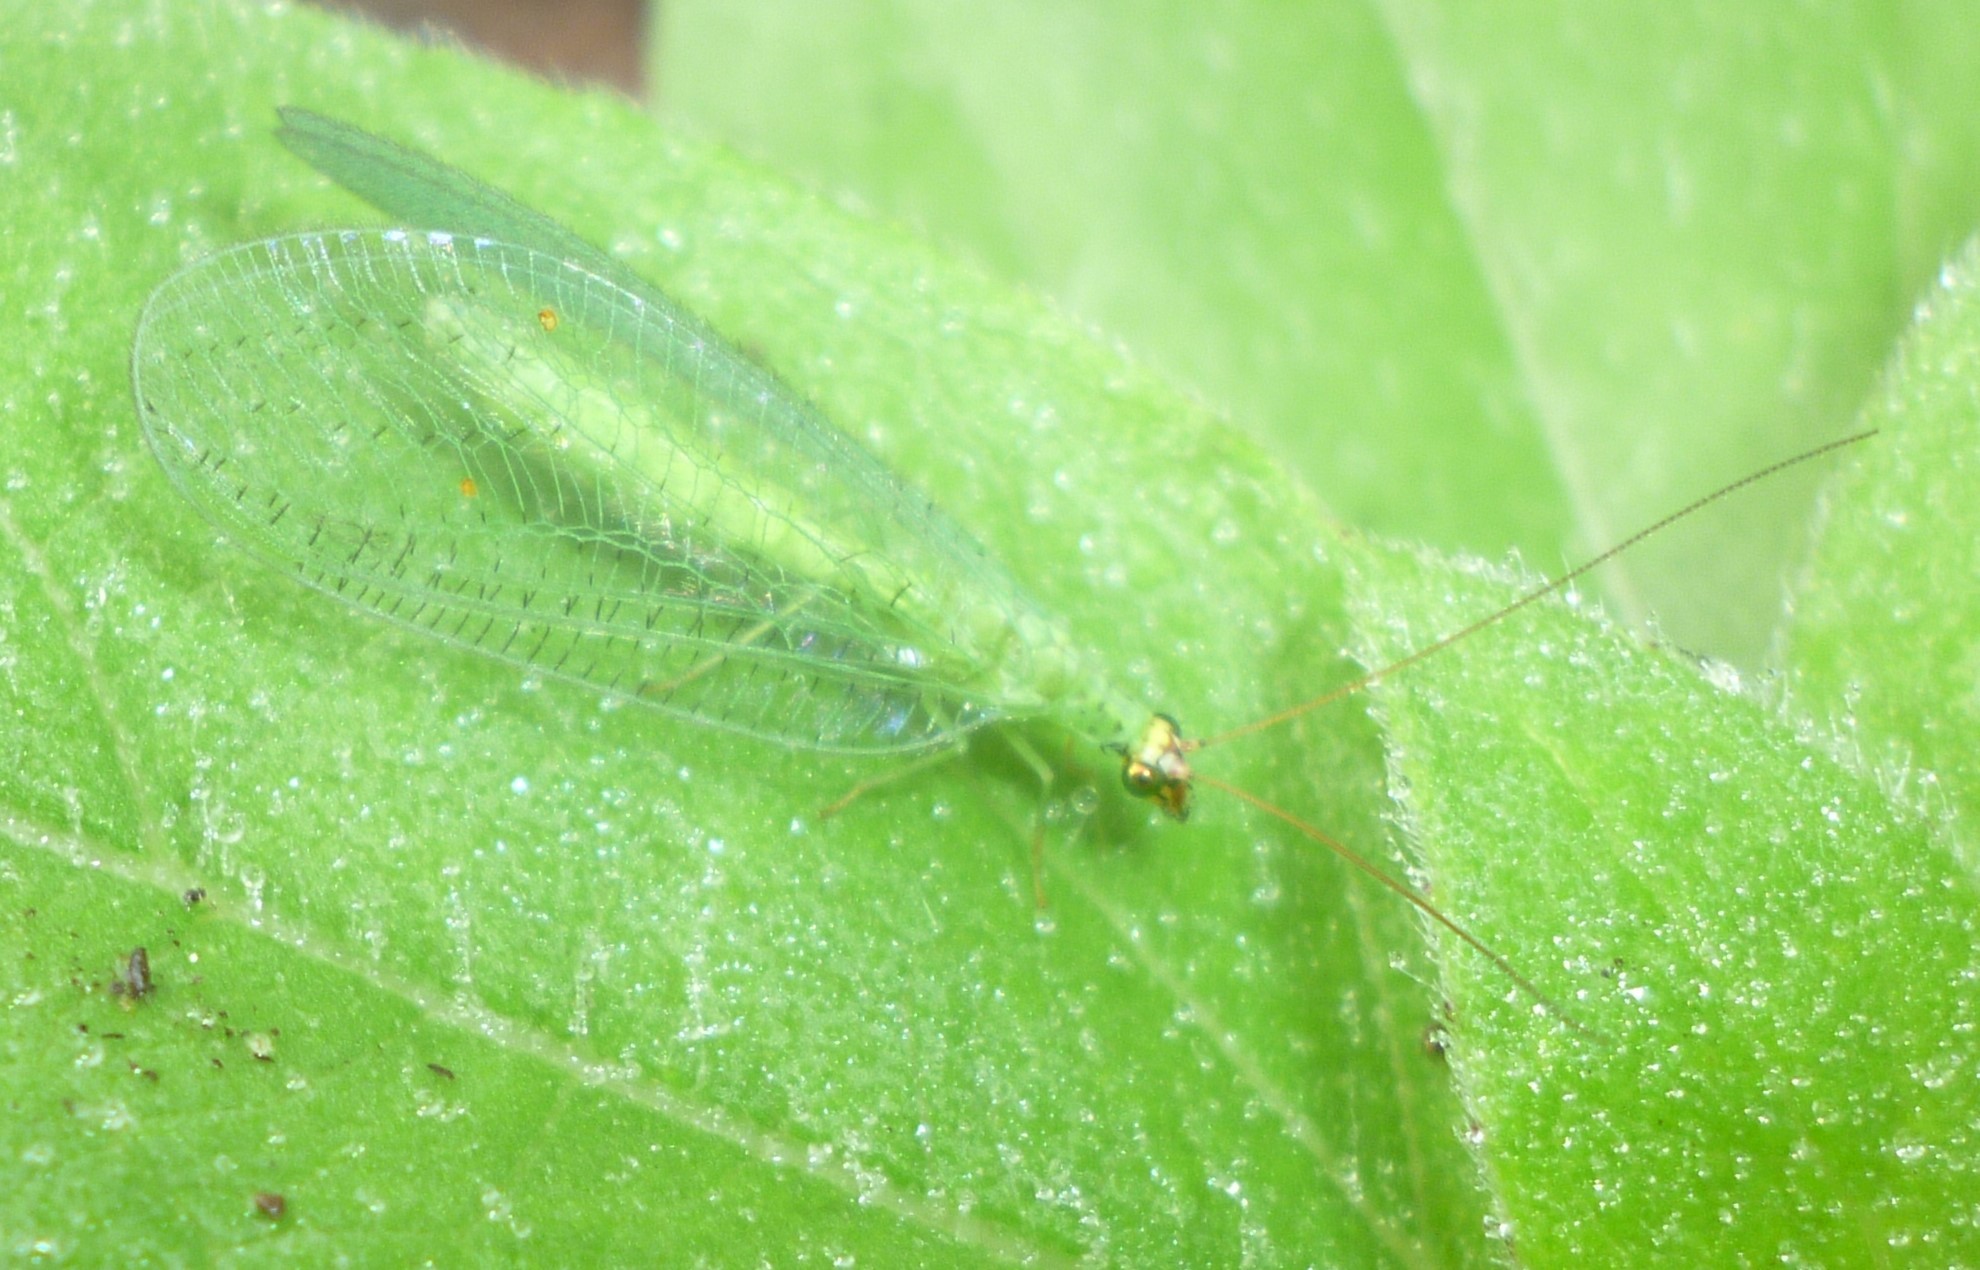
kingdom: Animalia
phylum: Arthropoda
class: Insecta
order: Neuroptera
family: Chrysopidae
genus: Chrysopa
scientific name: Chrysopa oculata
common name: Golden-eyed lacewing
